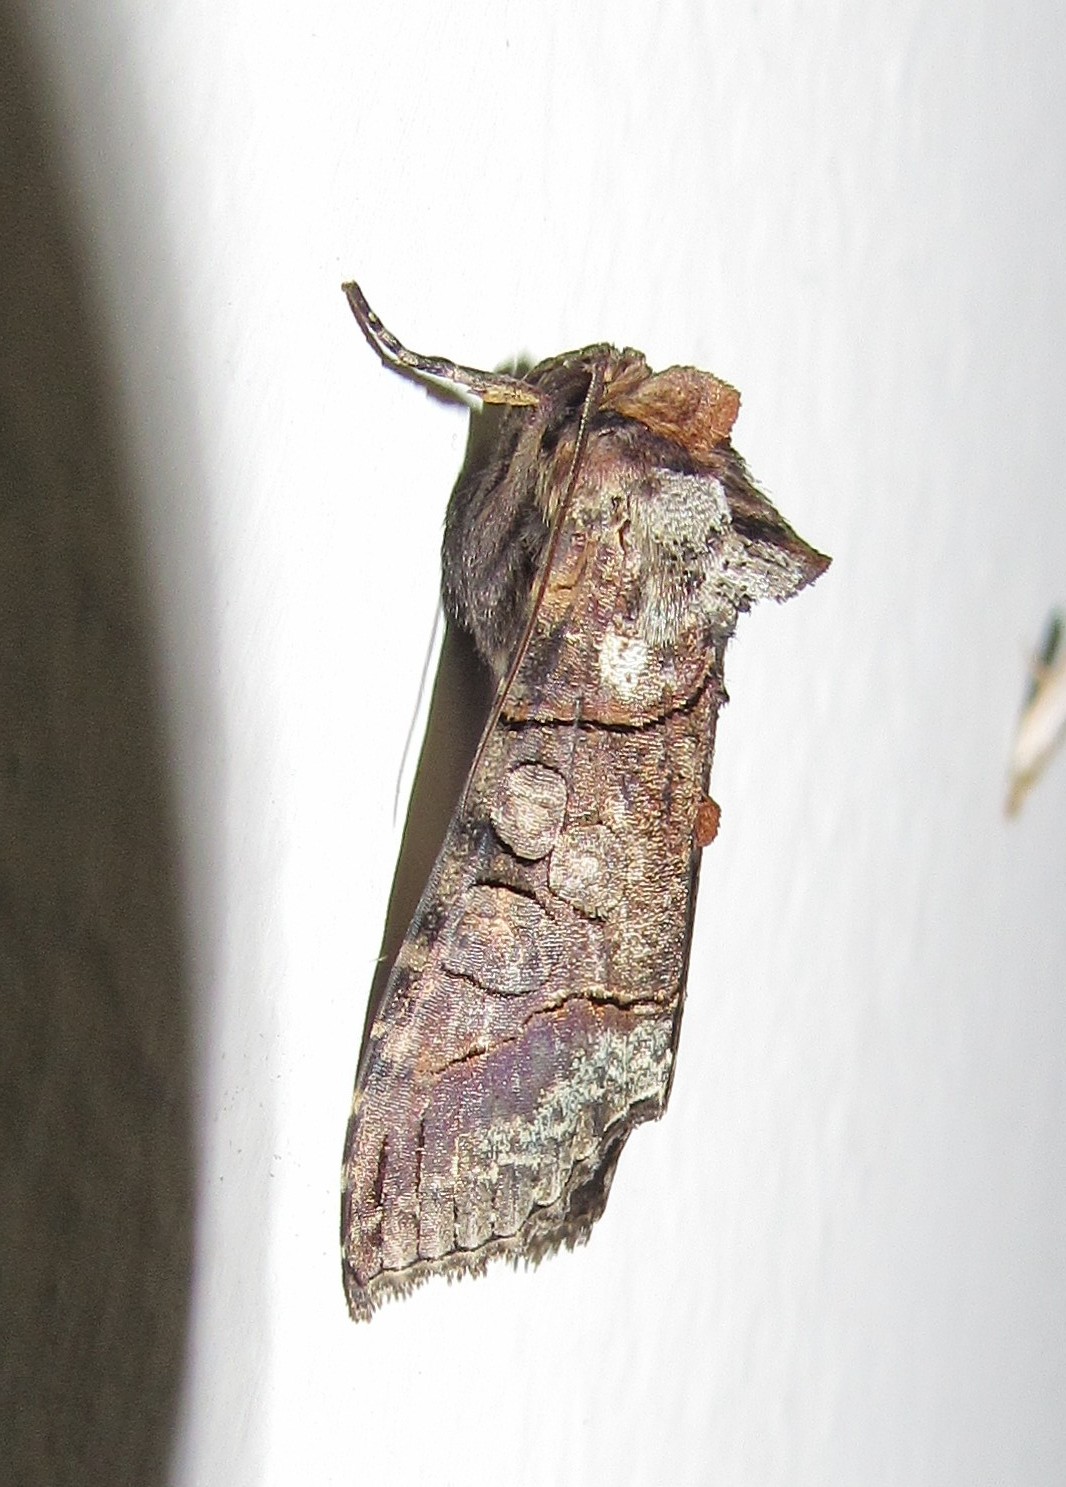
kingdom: Animalia
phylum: Arthropoda
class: Insecta
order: Lepidoptera
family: Noctuidae
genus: Mouralia
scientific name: Mouralia tinctoides
